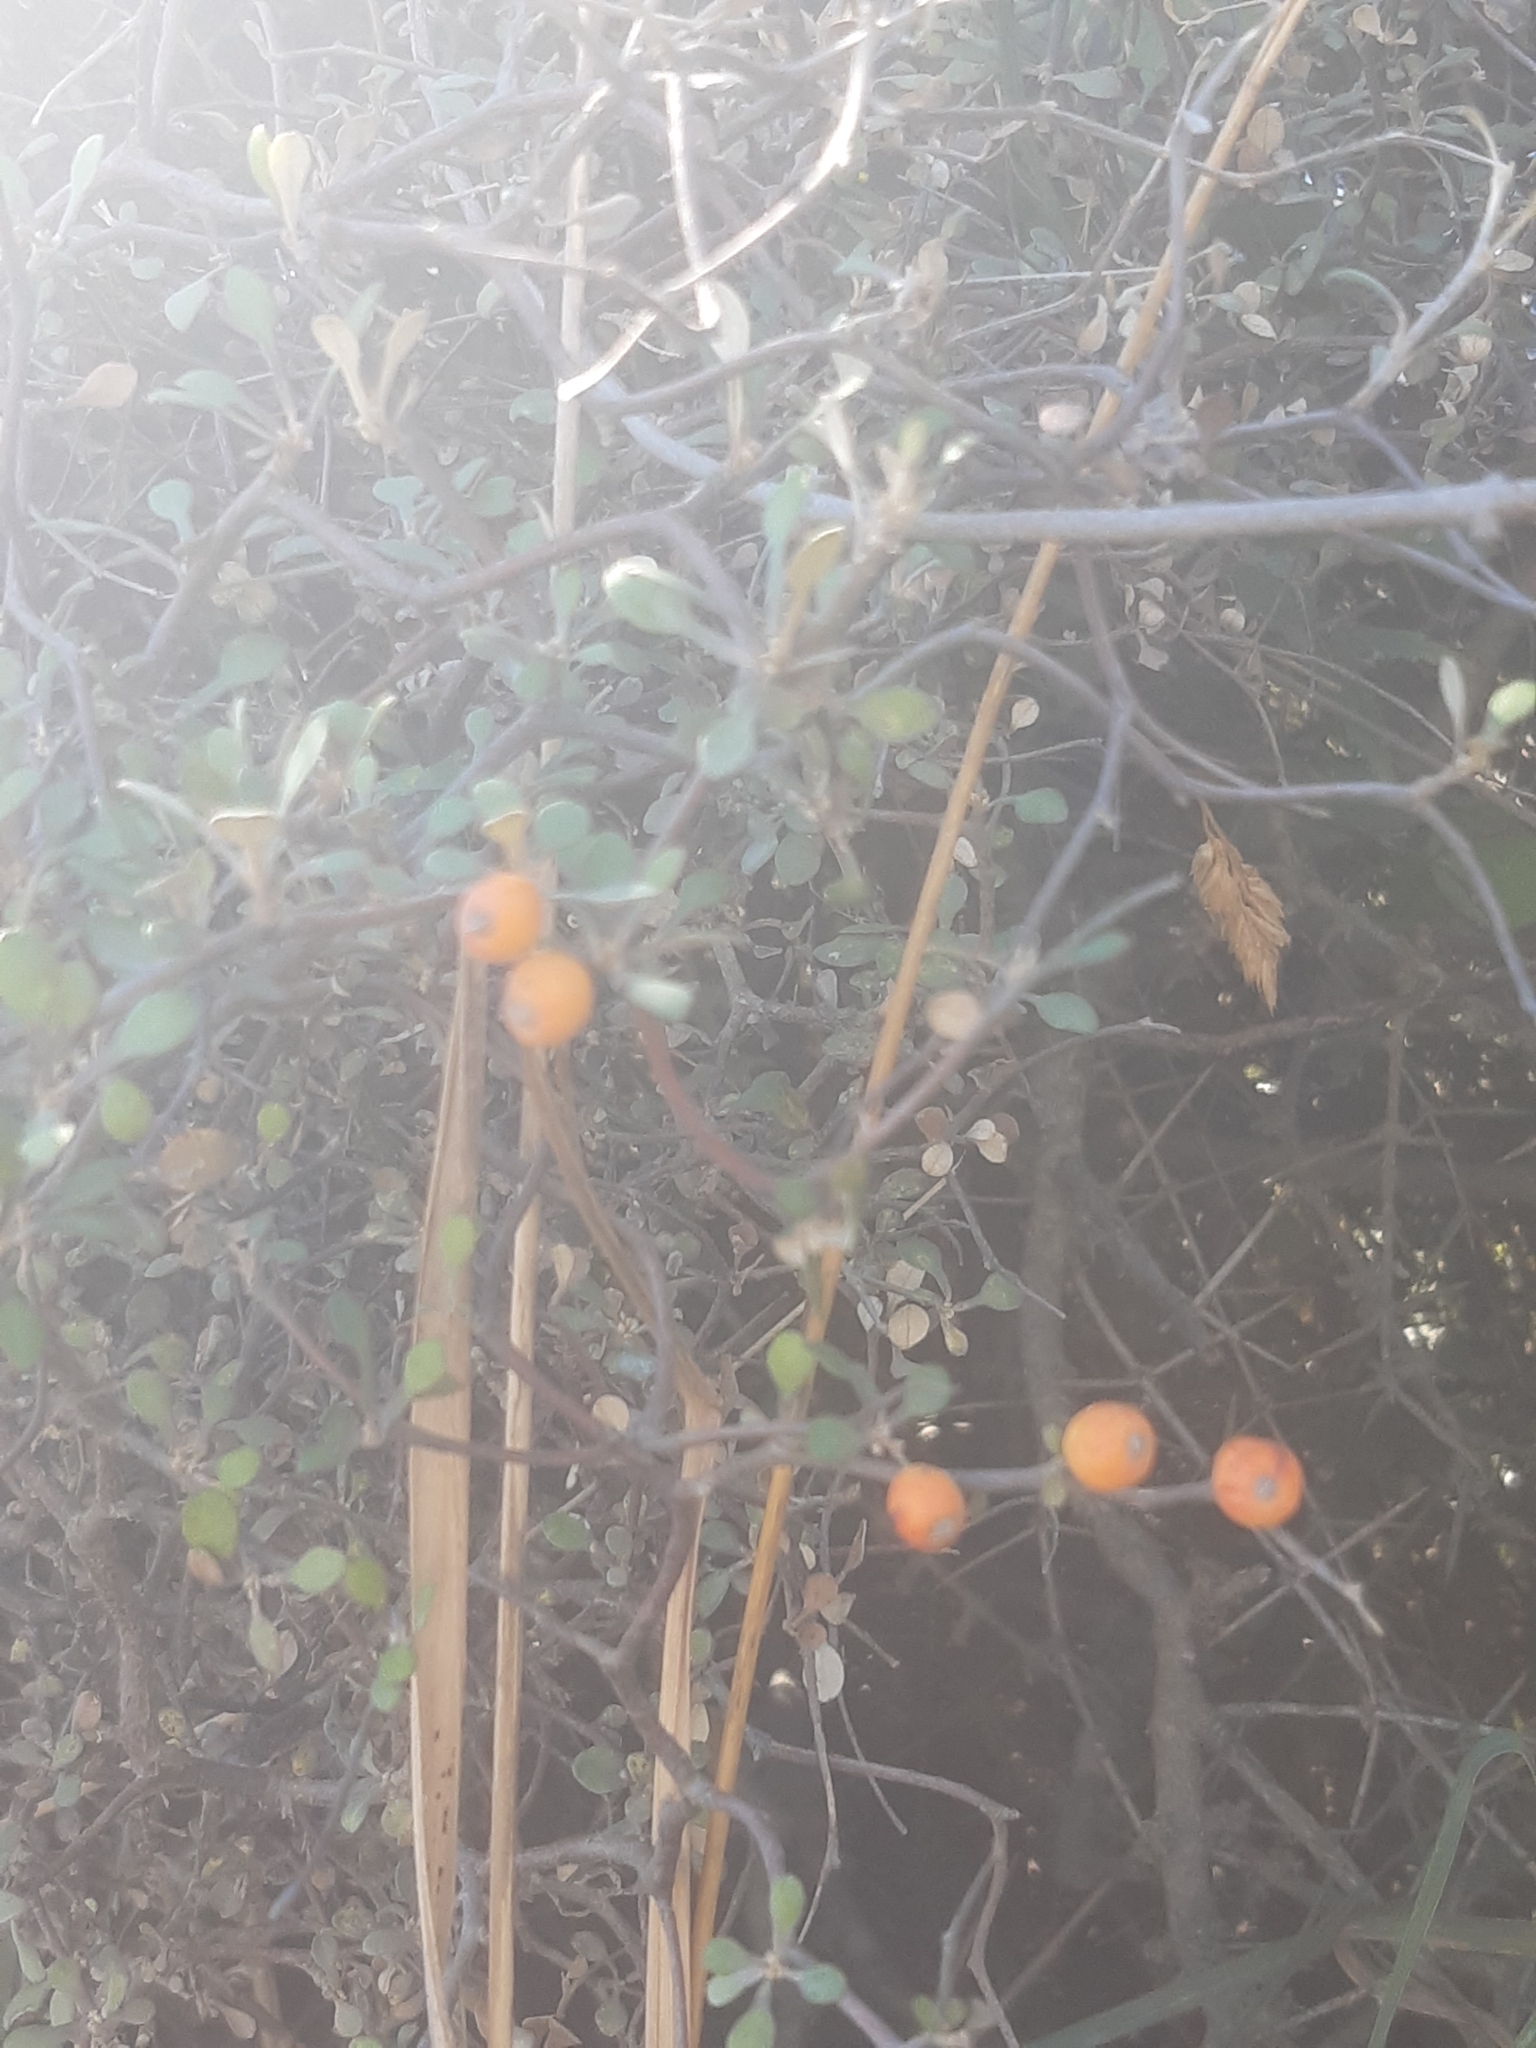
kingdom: Plantae
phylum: Tracheophyta
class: Magnoliopsida
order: Asterales
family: Argophyllaceae
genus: Corokia
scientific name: Corokia cotoneaster
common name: Wire nettingbush
